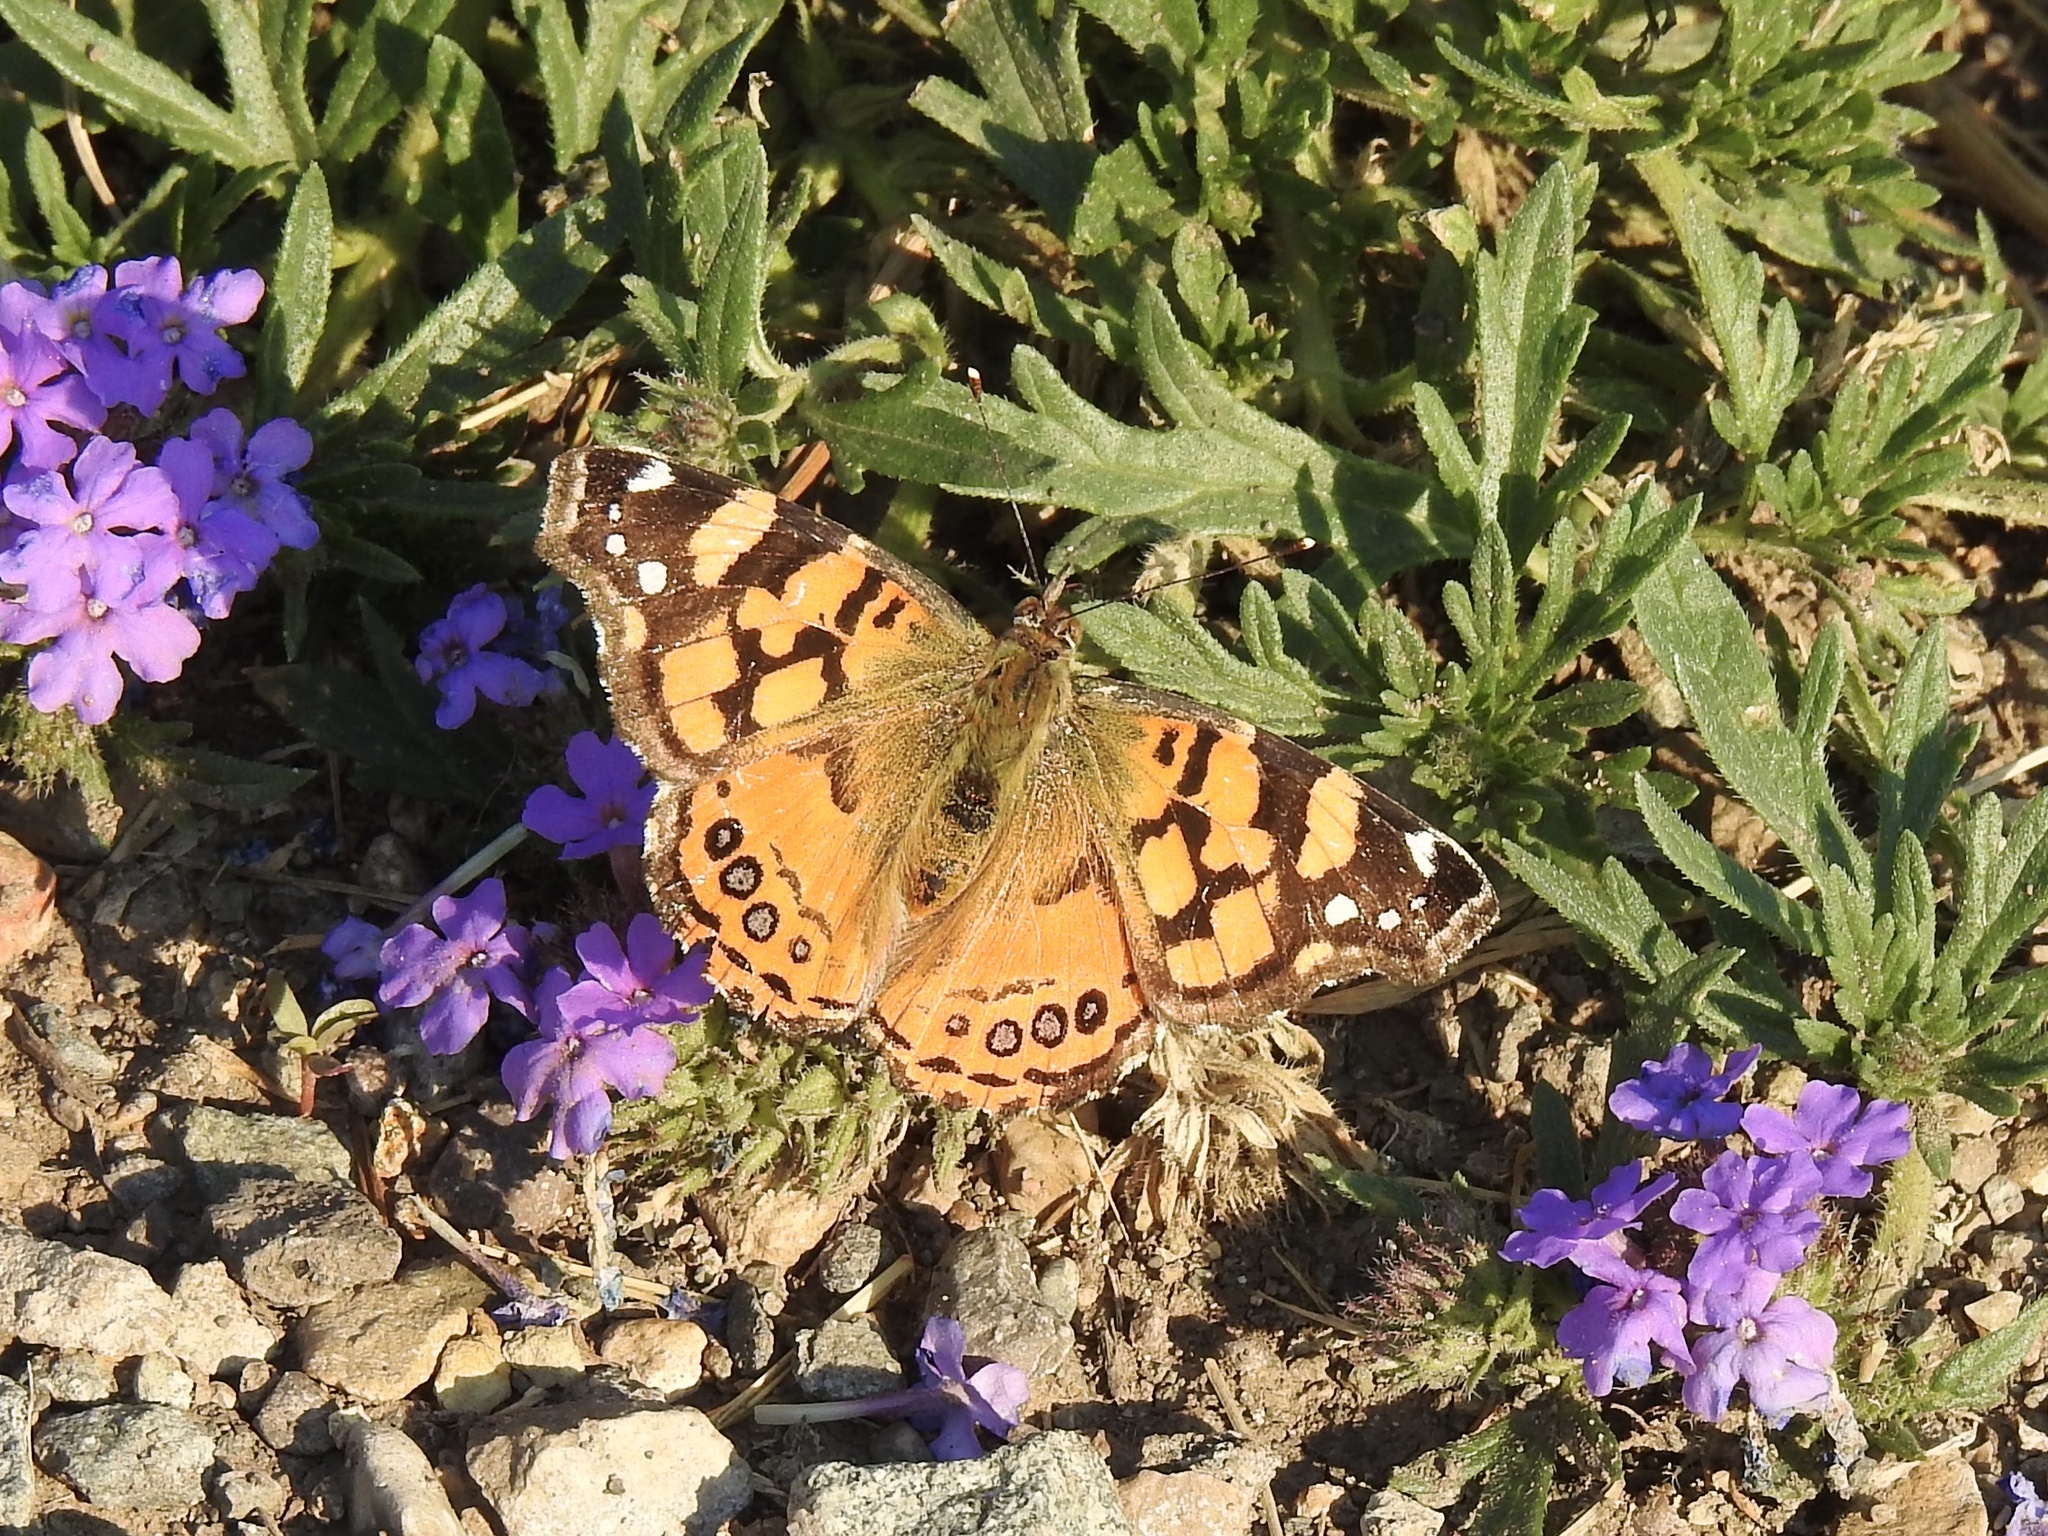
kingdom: Animalia
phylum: Arthropoda
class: Insecta
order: Lepidoptera
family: Nymphalidae
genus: Vanessa
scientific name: Vanessa annabella
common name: West coast lady
